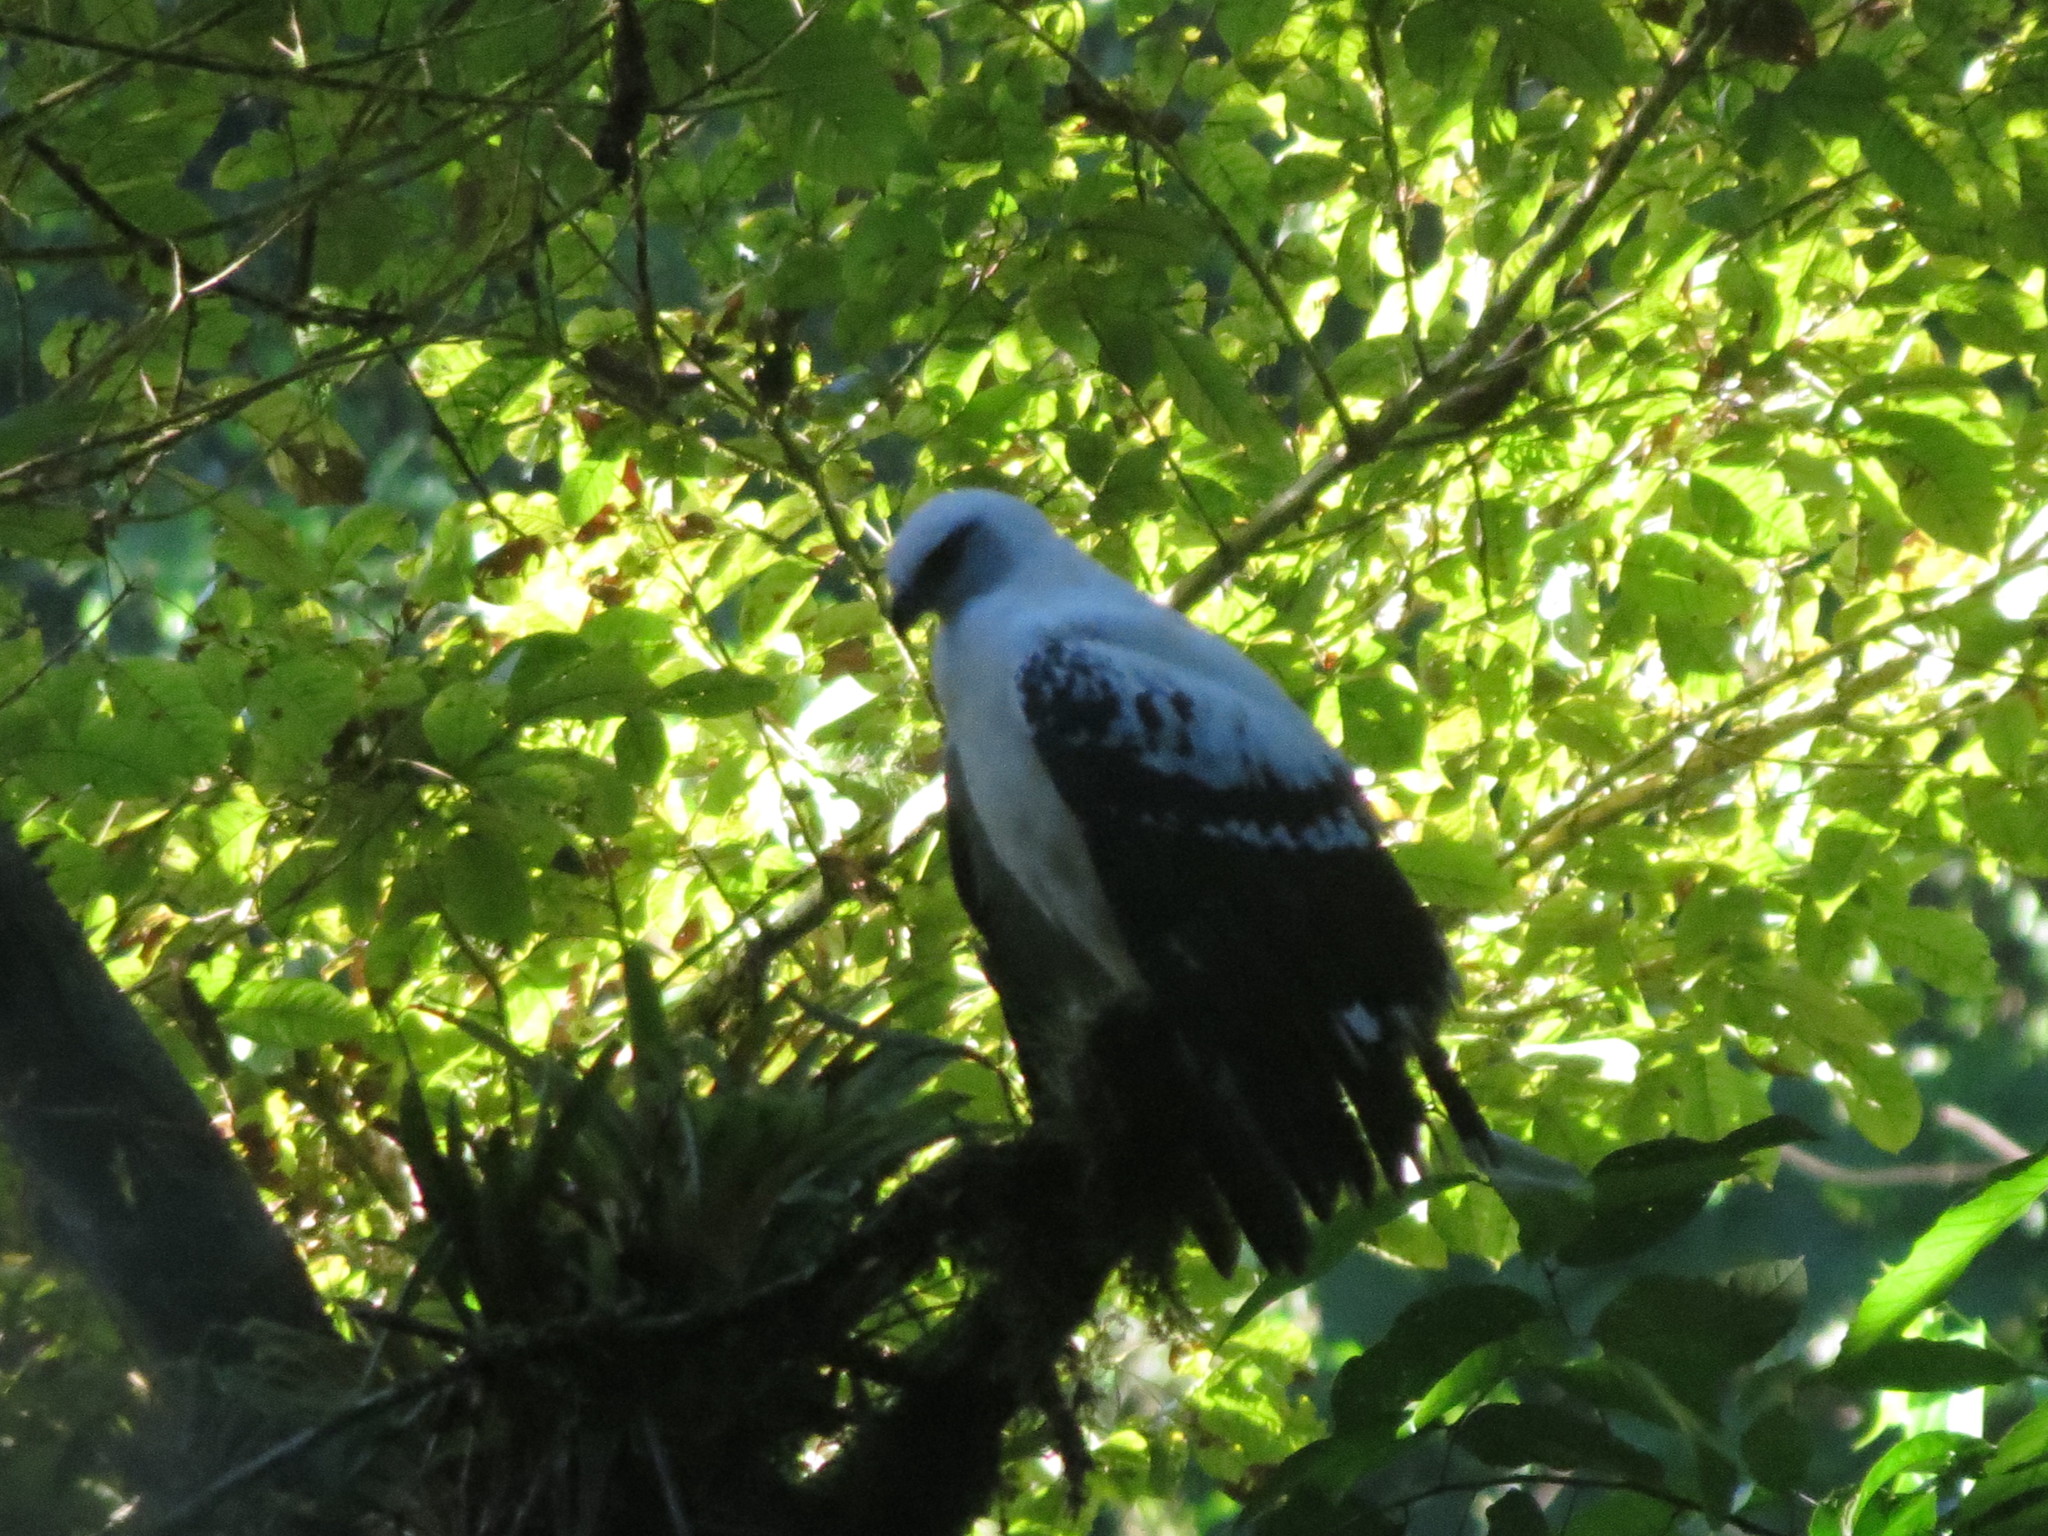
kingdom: Animalia
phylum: Chordata
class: Aves
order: Accipitriformes
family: Accipitridae
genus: Leucopternis
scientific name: Leucopternis albicollis
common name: White hawk
